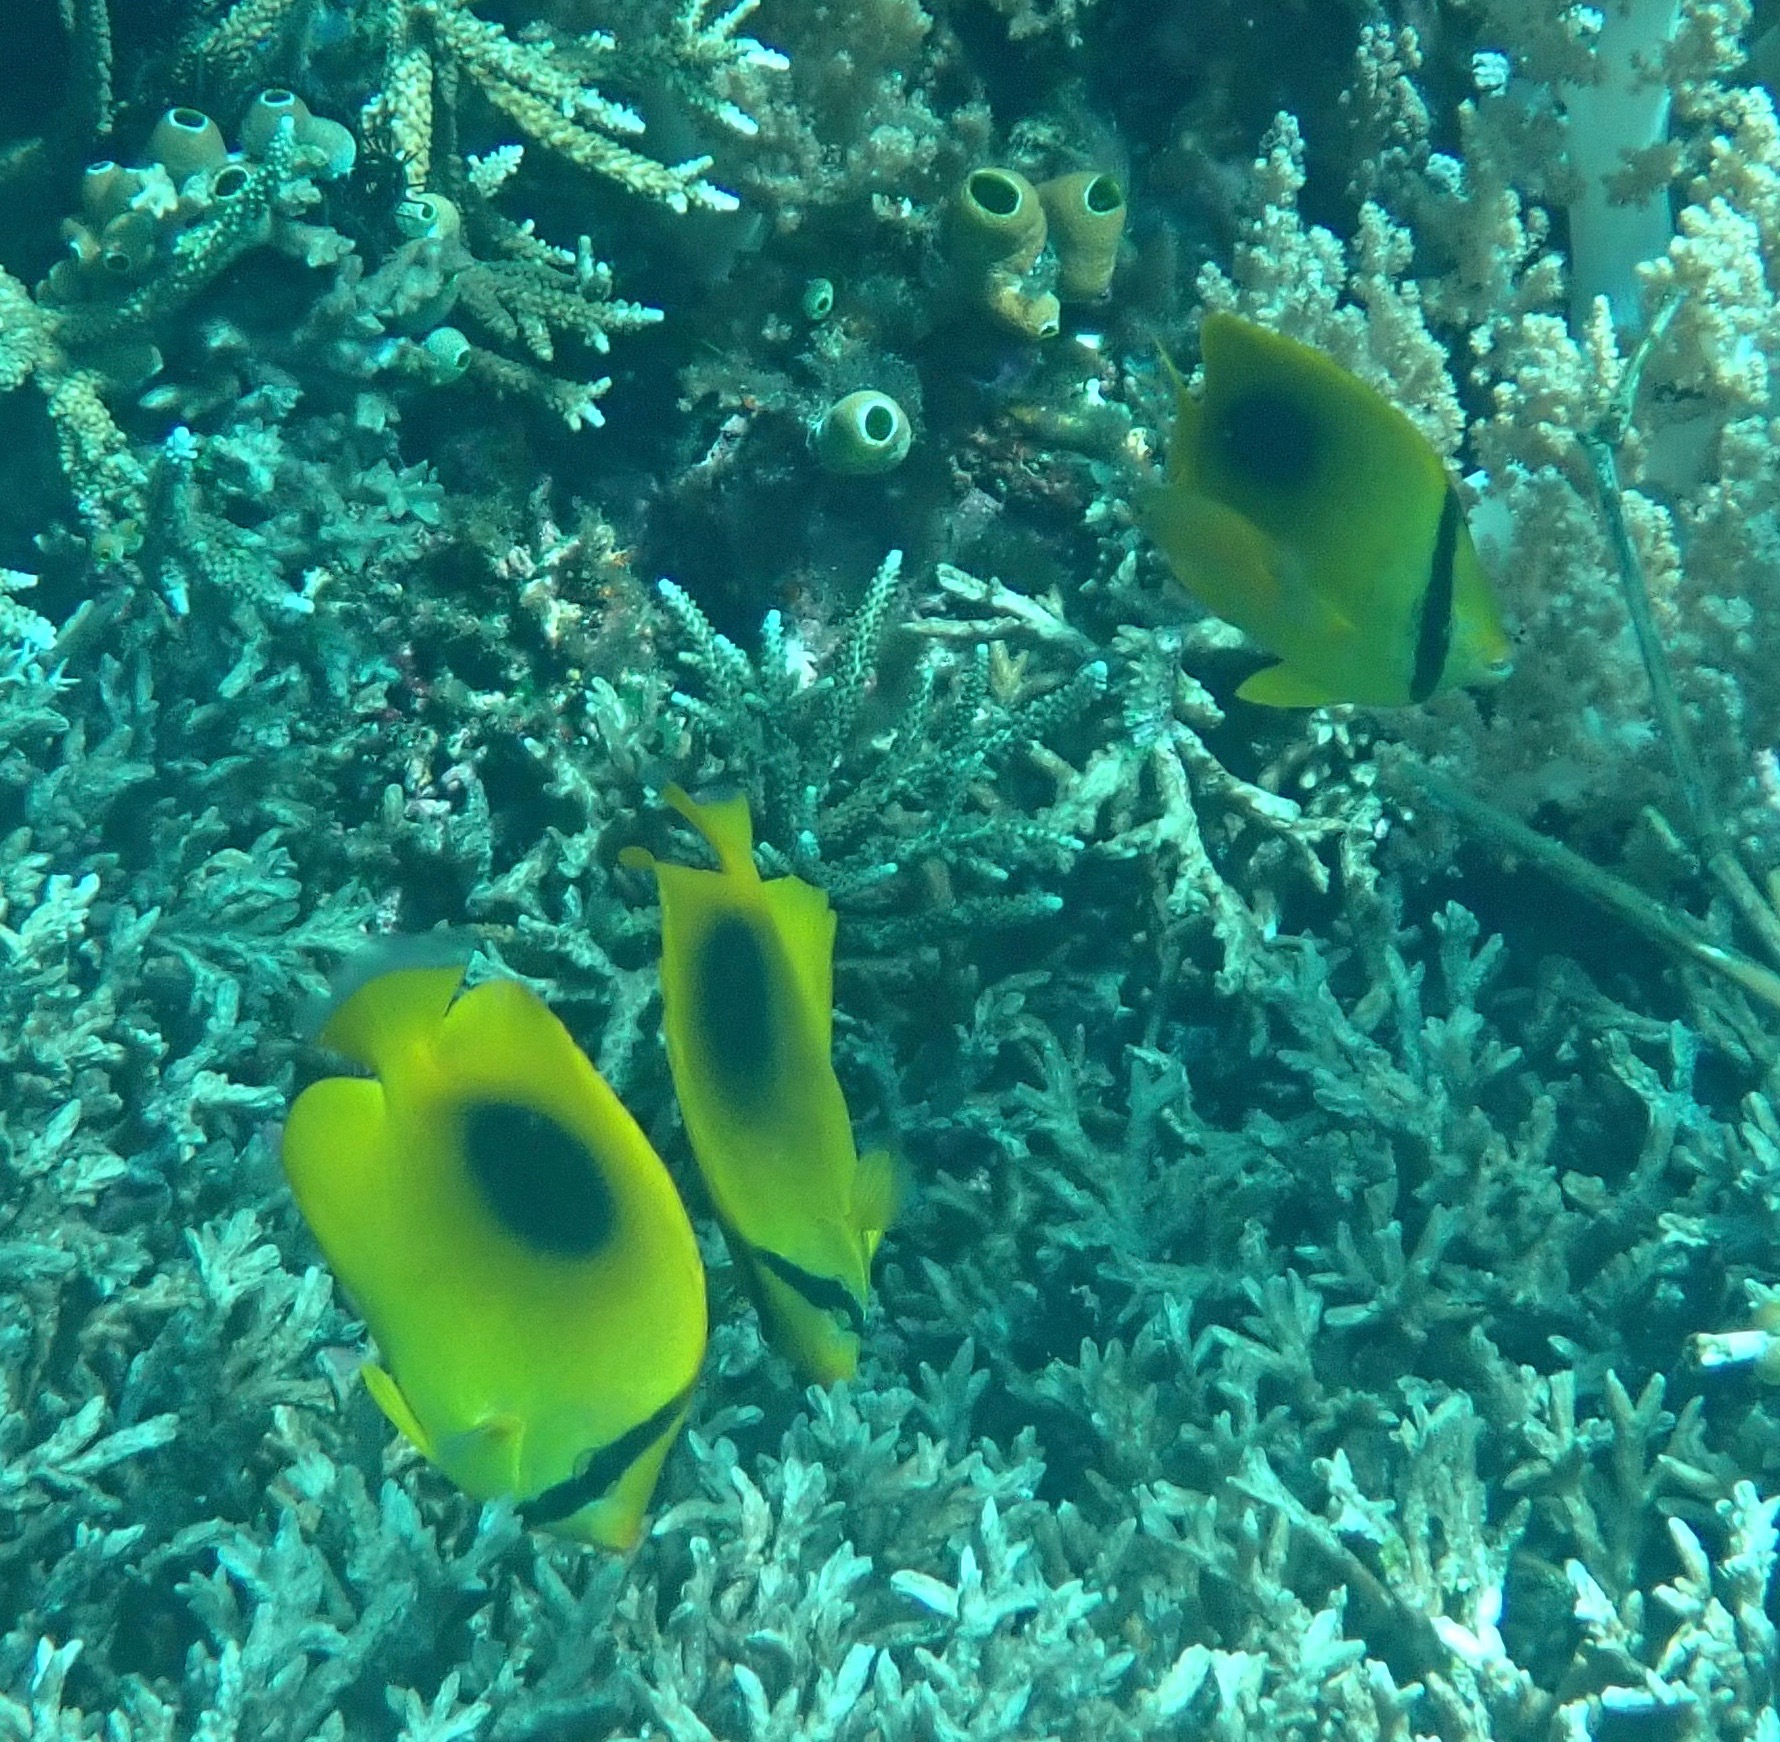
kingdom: Animalia
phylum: Chordata
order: Perciformes
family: Chaetodontidae
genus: Chaetodon
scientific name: Chaetodon speculum
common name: Mirror butterflyfish
